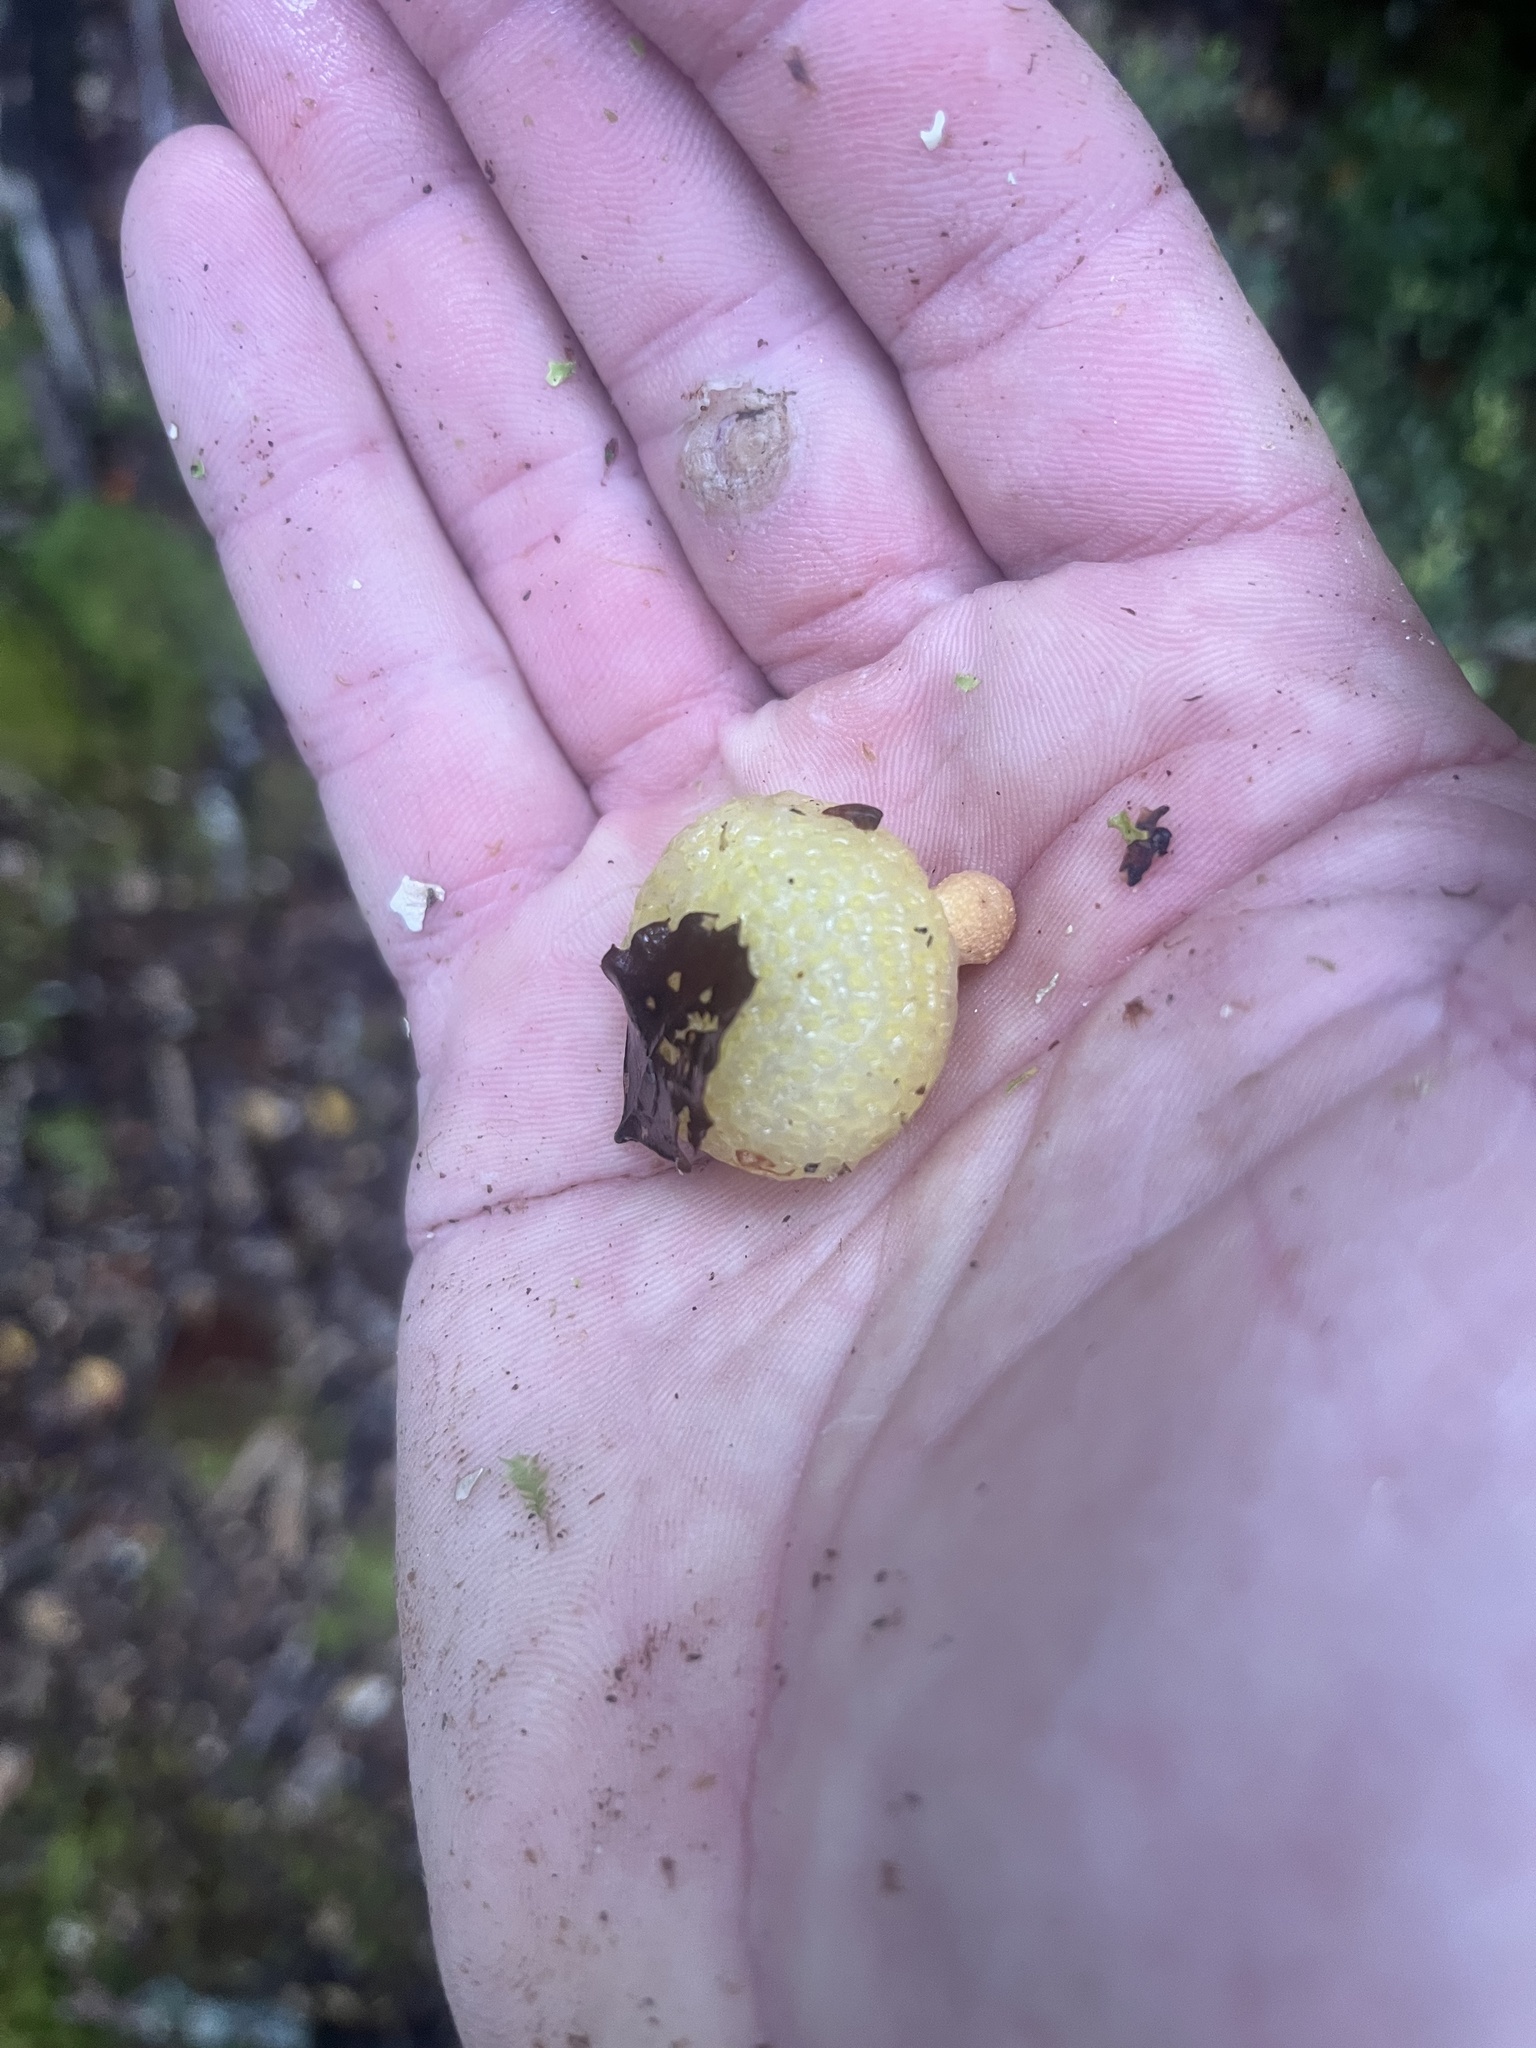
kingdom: Fungi
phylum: Ascomycota
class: Leotiomycetes
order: Cyttariales
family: Cyttariaceae
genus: Cyttaria
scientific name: Cyttaria gunnii
